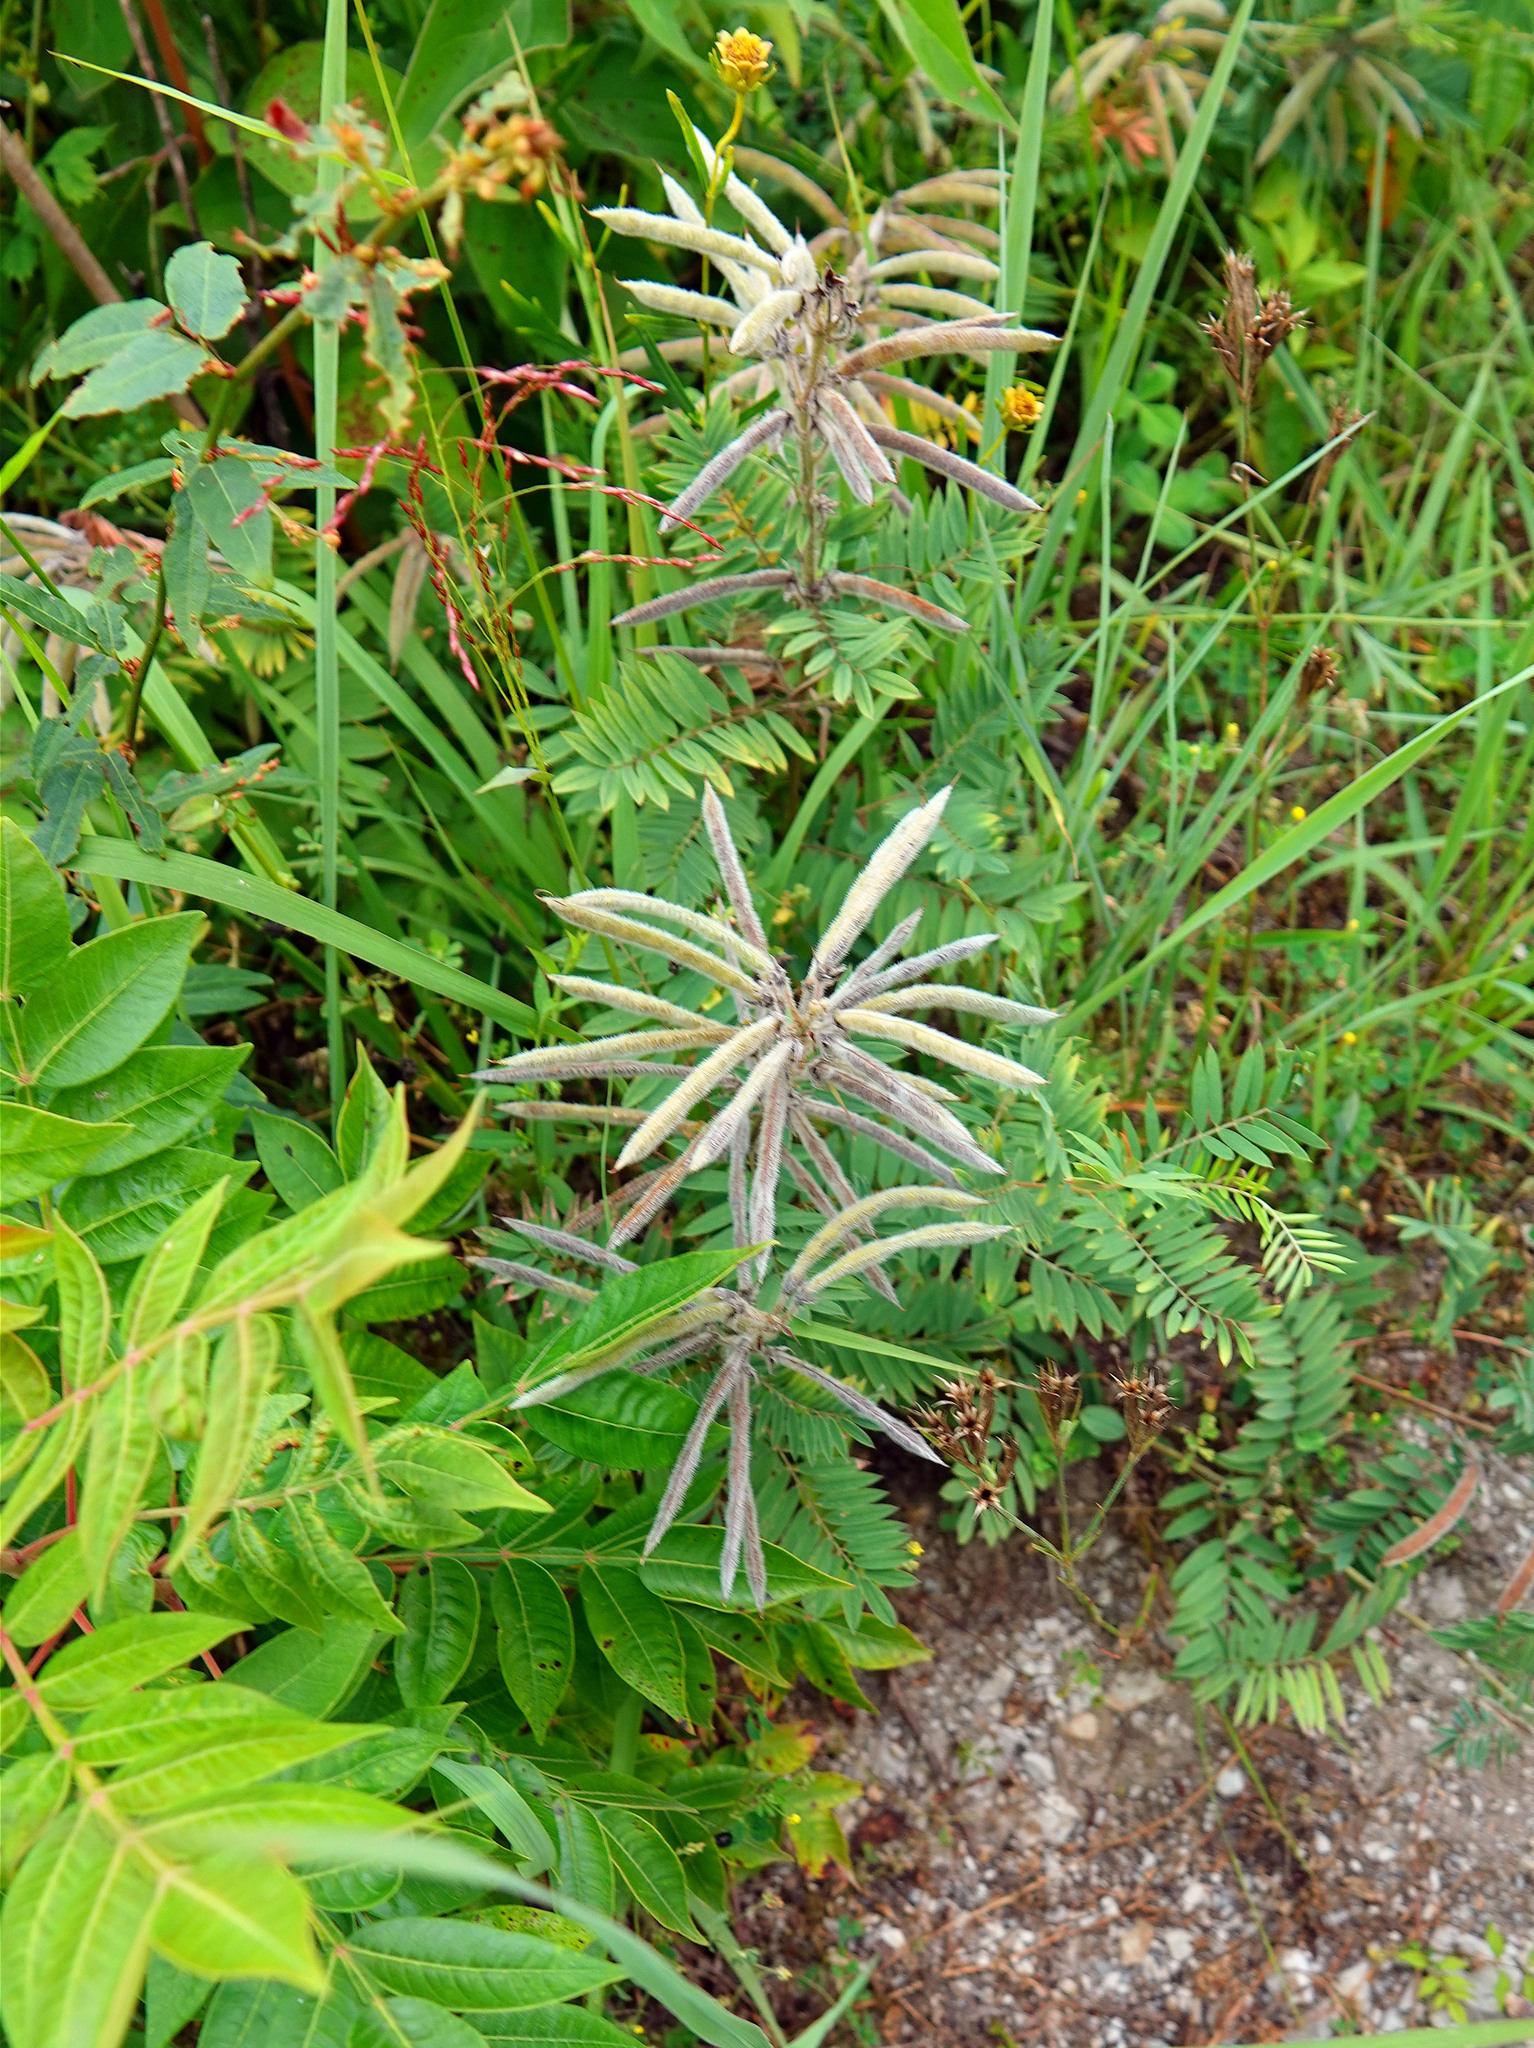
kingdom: Plantae
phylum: Tracheophyta
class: Magnoliopsida
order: Fabales
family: Fabaceae
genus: Tephrosia
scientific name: Tephrosia virginiana
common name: Rabbit-pea
